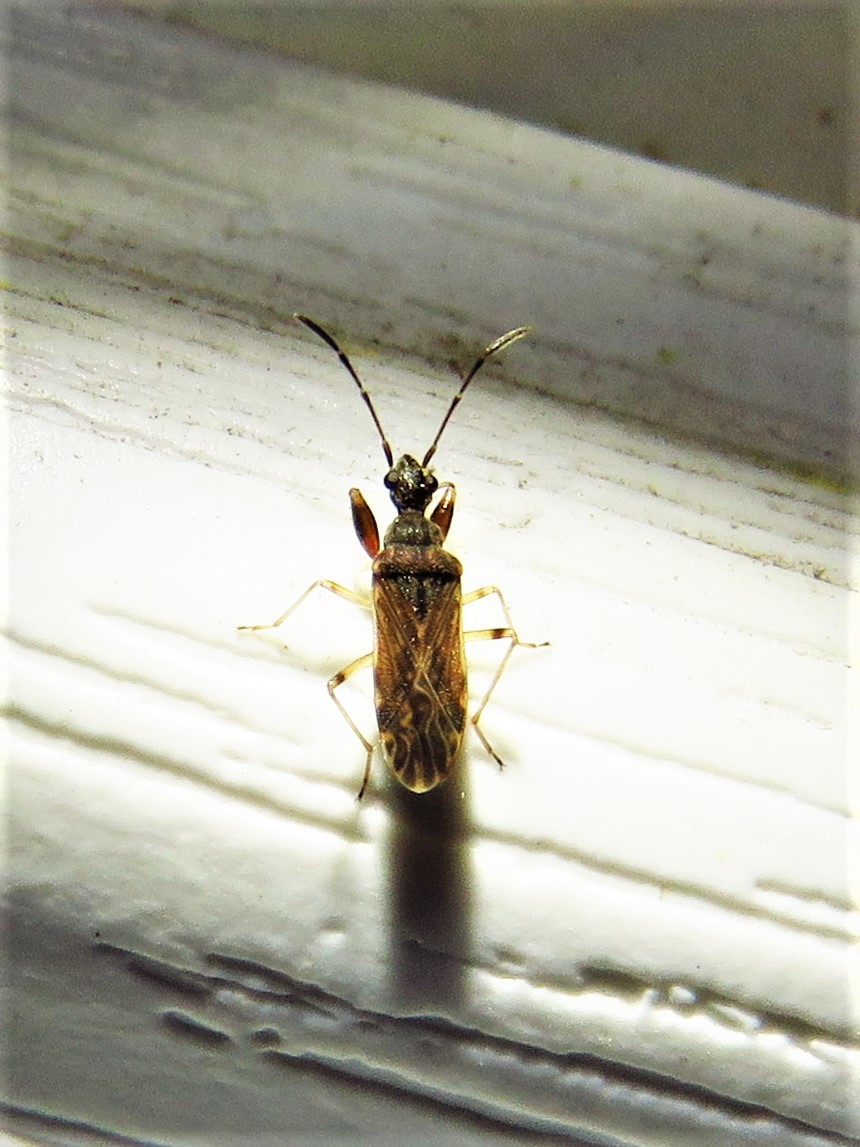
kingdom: Animalia
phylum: Arthropoda
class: Insecta
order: Hemiptera
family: Rhyparochromidae
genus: Heraeus
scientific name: Heraeus plebejus
